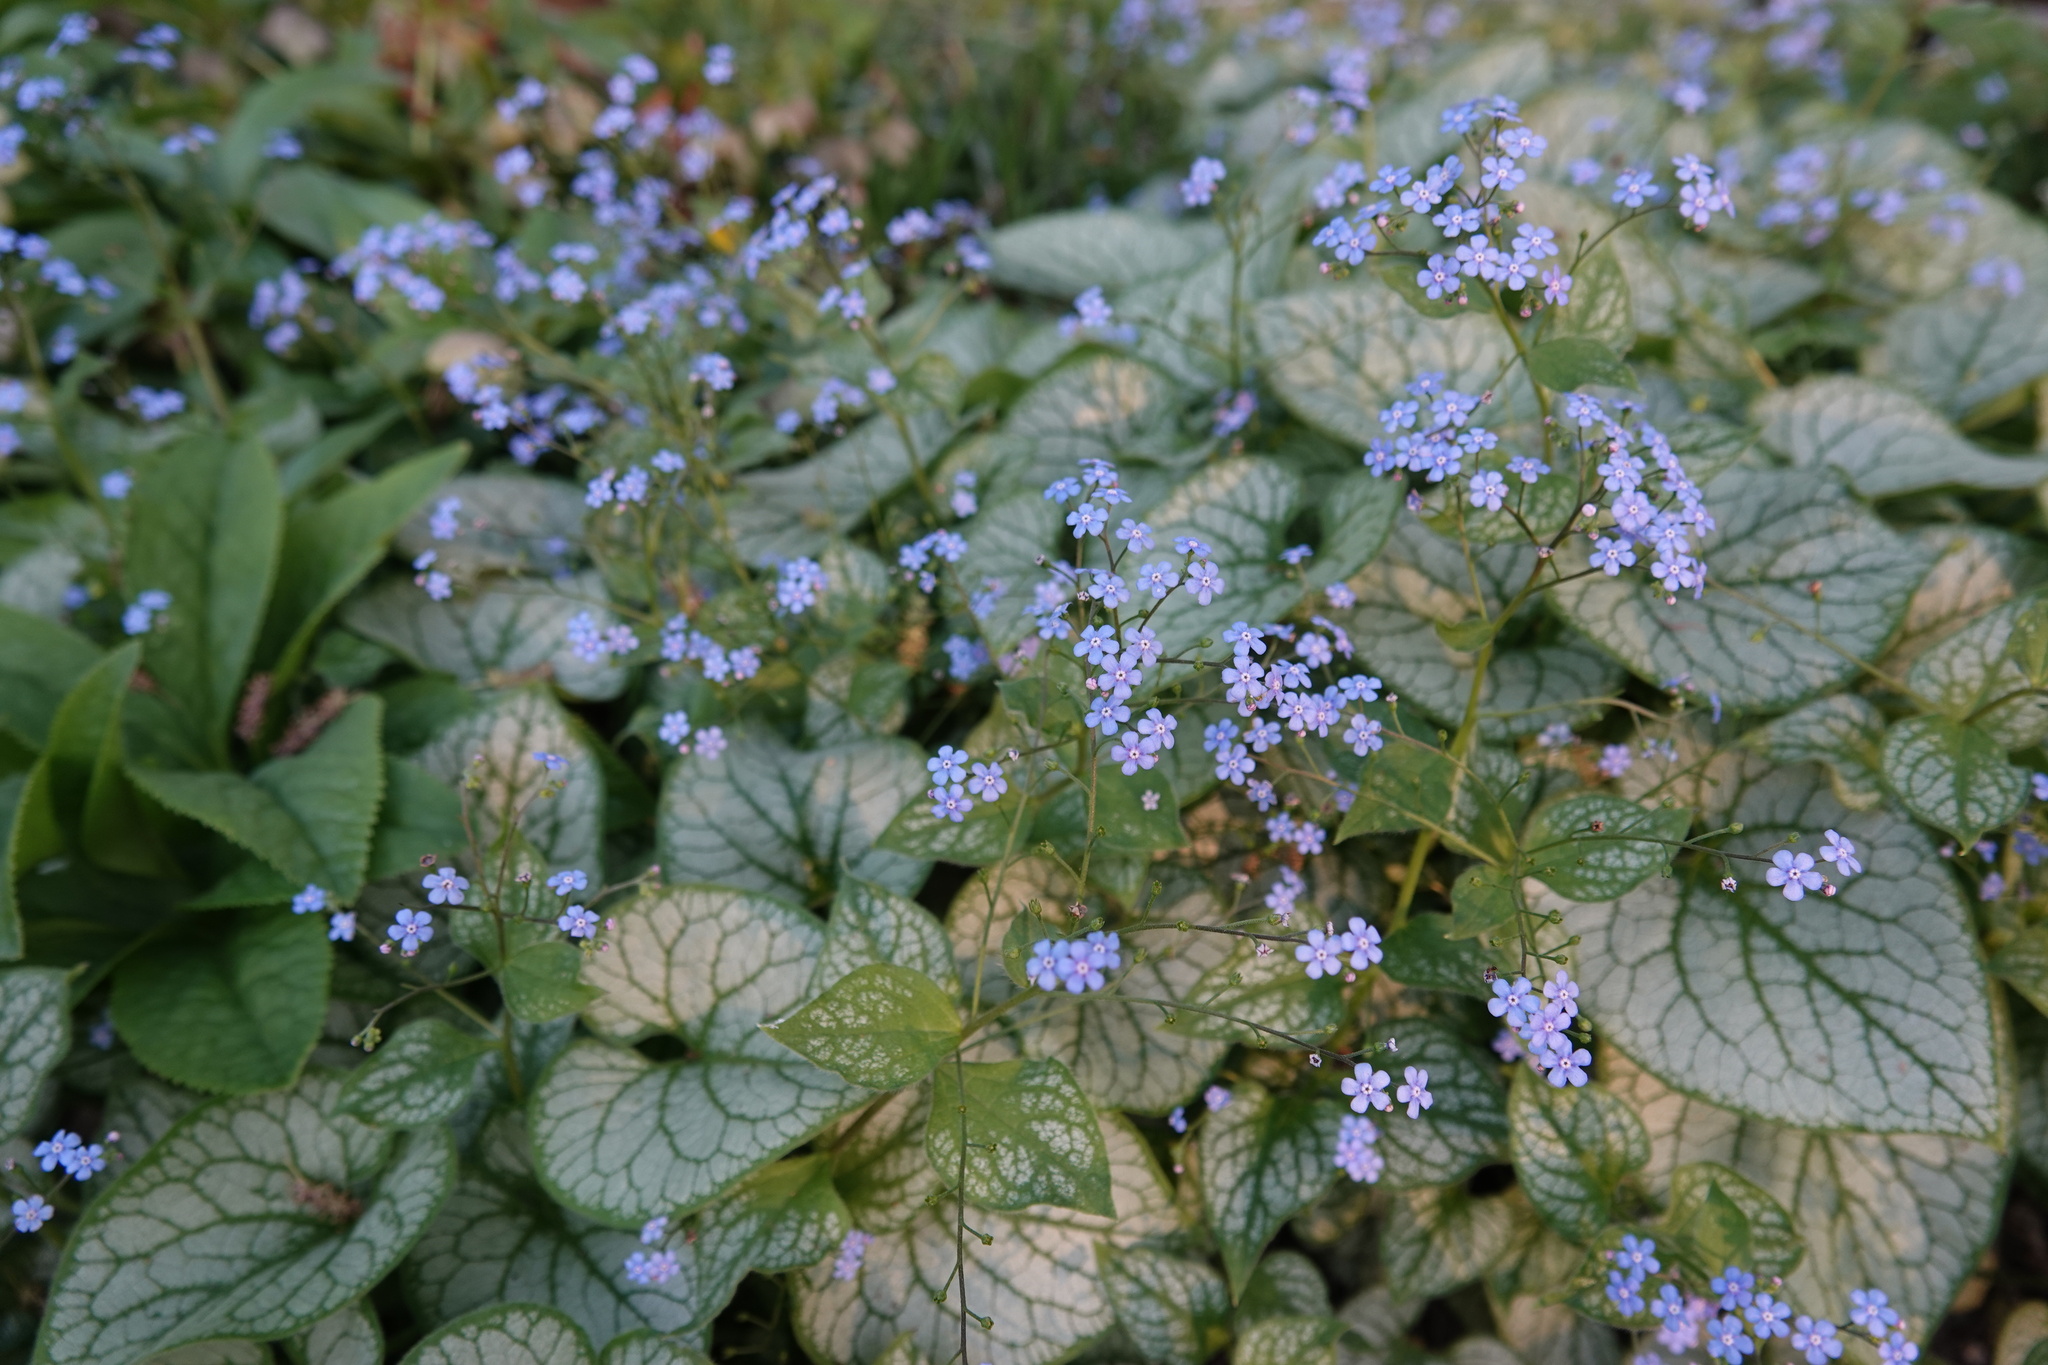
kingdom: Plantae
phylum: Tracheophyta
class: Magnoliopsida
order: Boraginales
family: Boraginaceae
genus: Brunnera
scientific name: Brunnera macrophylla
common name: Great forget-me-not
